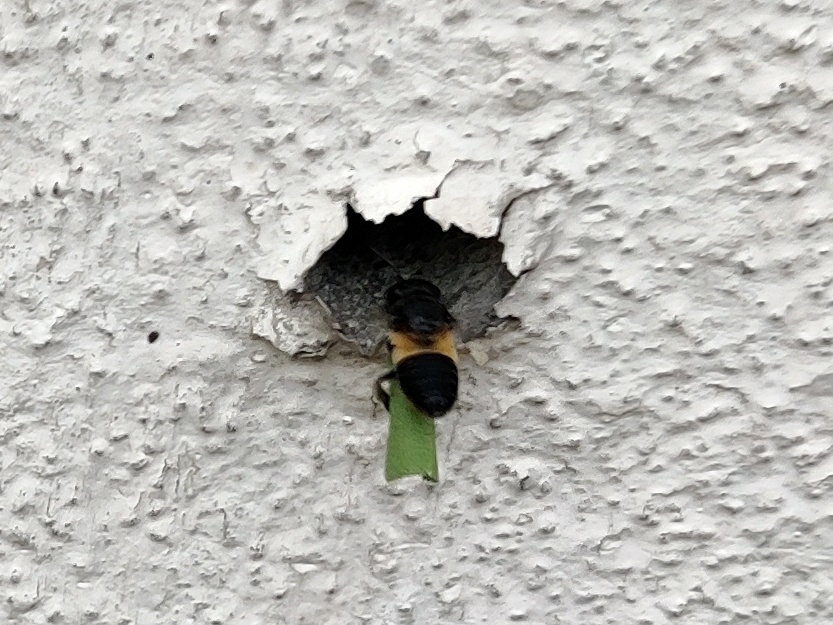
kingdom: Animalia
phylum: Arthropoda
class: Insecta
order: Hymenoptera
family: Megachilidae
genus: Megachile
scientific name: Megachile conjuncta
